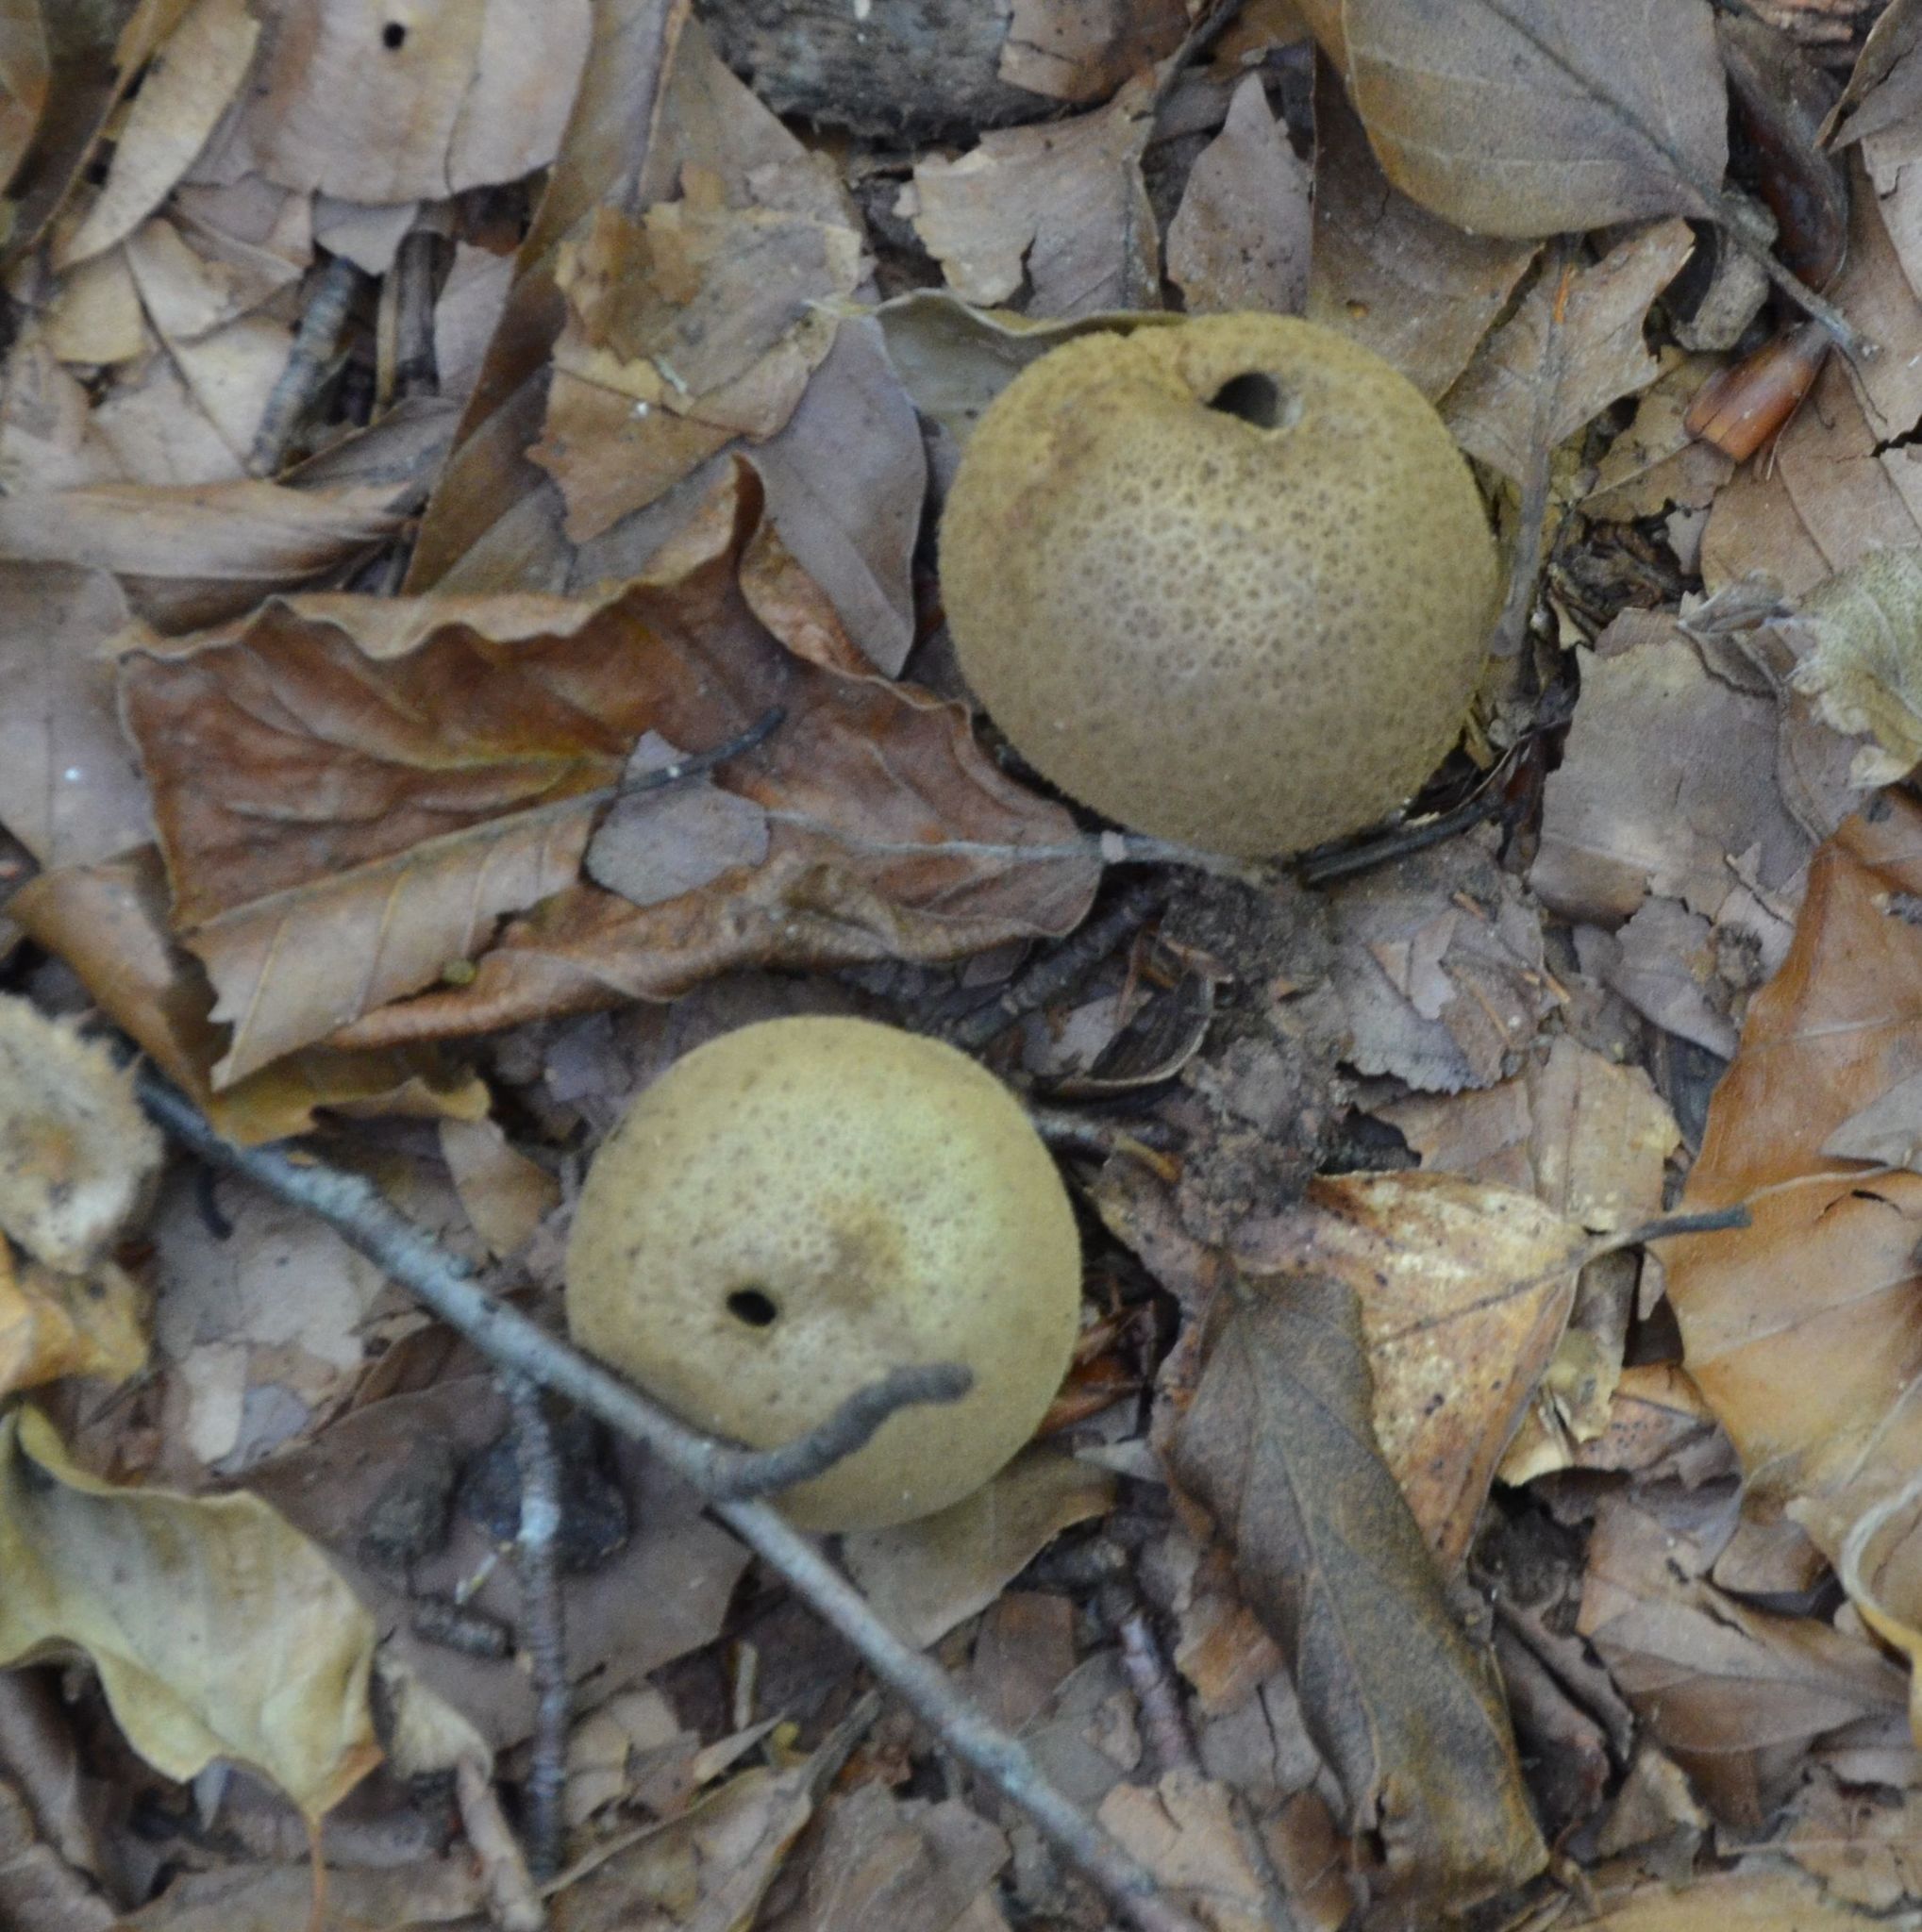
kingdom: Fungi
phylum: Basidiomycota
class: Agaricomycetes
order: Boletales
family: Sclerodermataceae
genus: Scleroderma
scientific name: Scleroderma citrinum
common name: Common earthball
